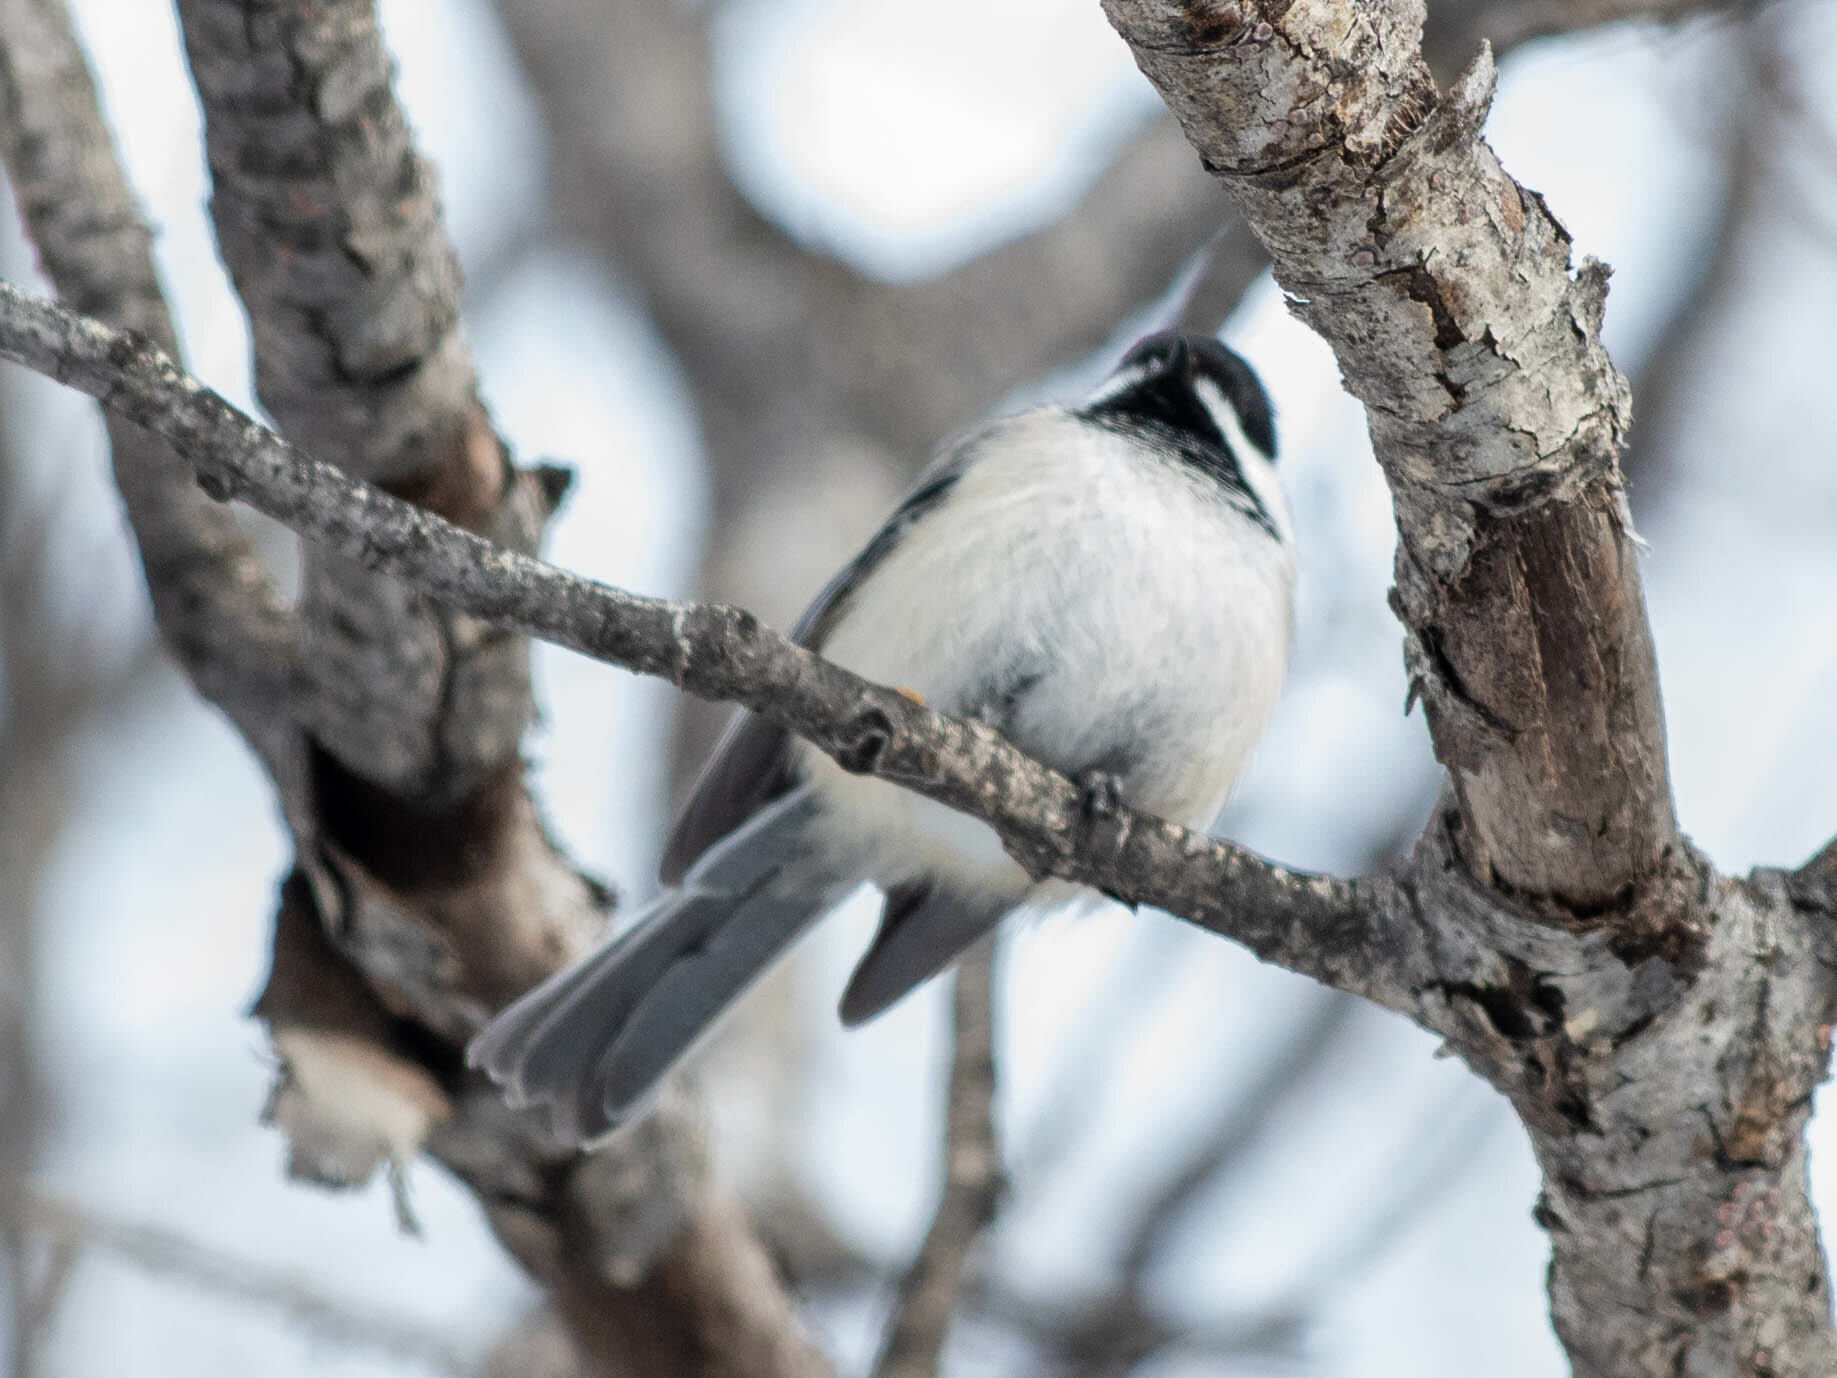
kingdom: Animalia
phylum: Chordata
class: Aves
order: Passeriformes
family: Paridae
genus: Poecile
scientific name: Poecile atricapillus
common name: Black-capped chickadee
